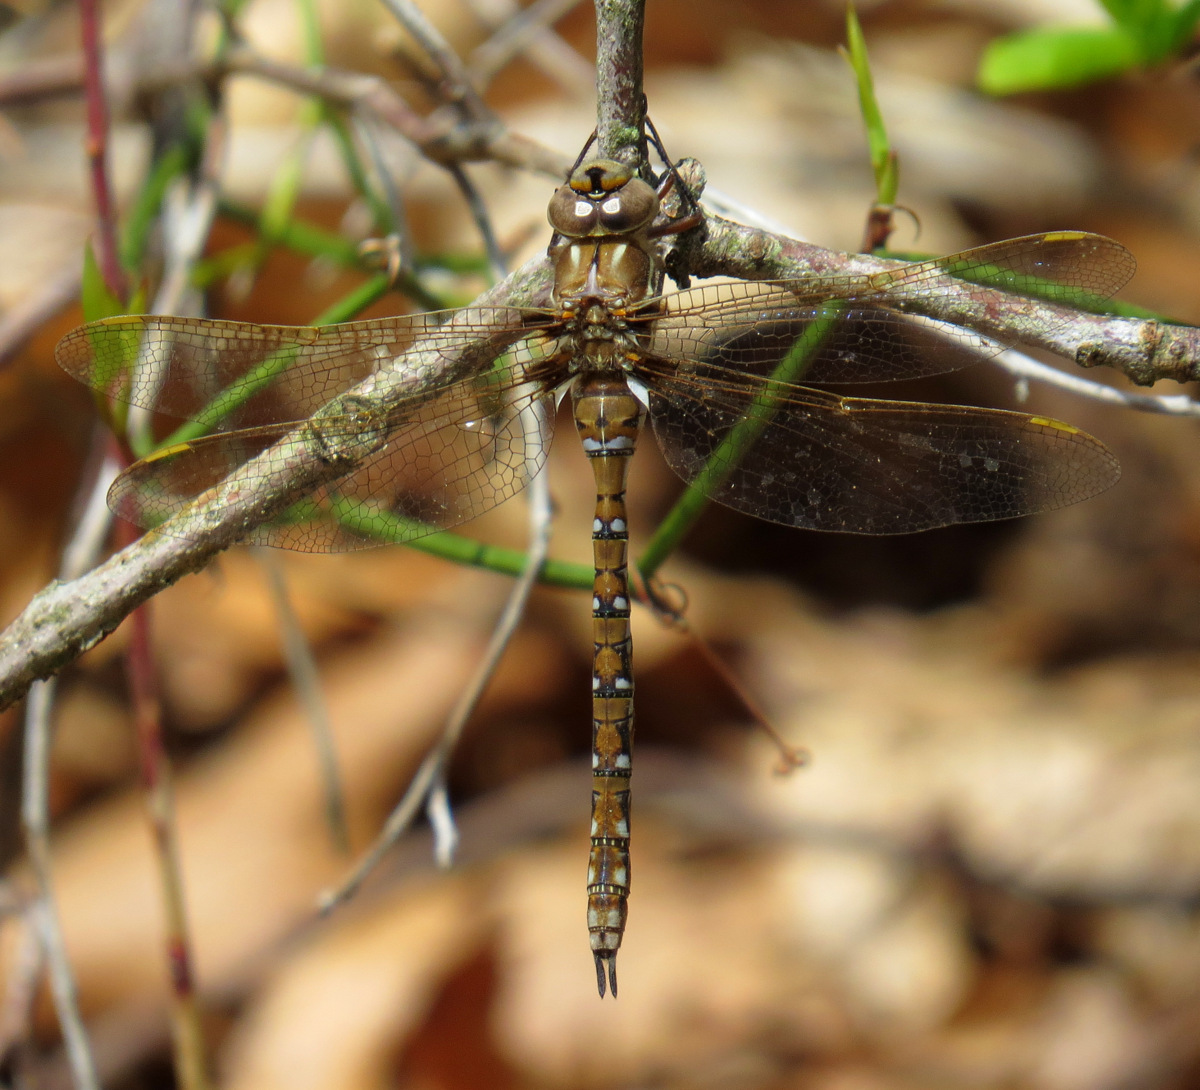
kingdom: Animalia
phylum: Arthropoda
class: Insecta
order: Odonata
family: Aeshnidae
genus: Basiaeschna
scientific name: Basiaeschna janata
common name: Springtime darner
